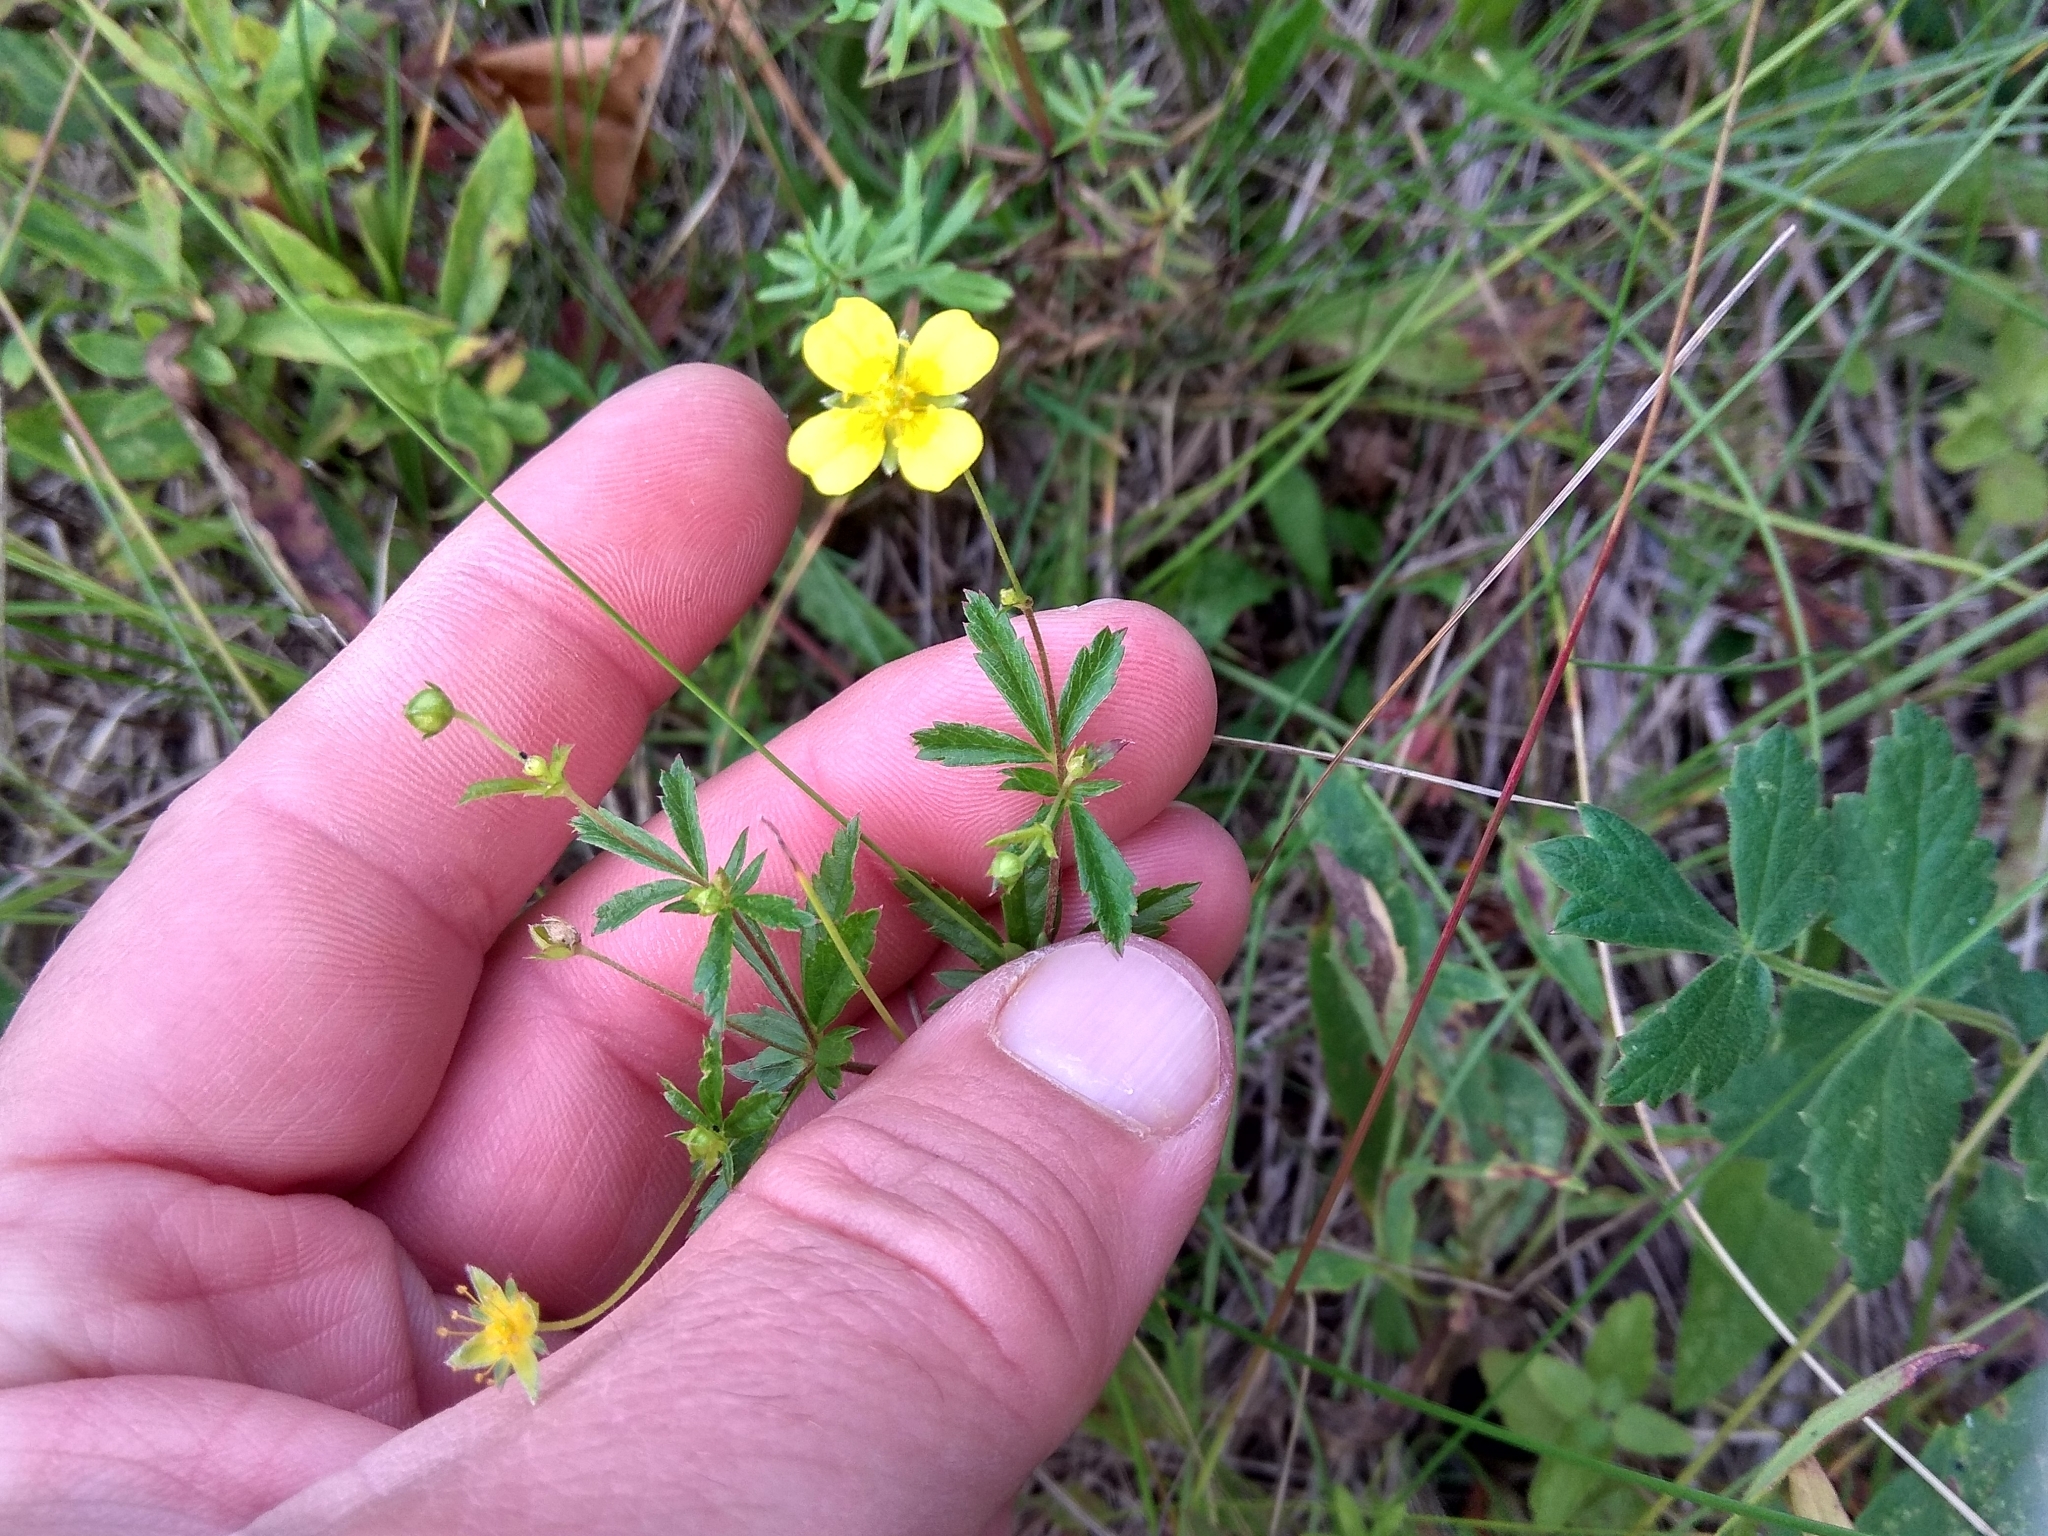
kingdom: Plantae
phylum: Tracheophyta
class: Magnoliopsida
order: Rosales
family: Rosaceae
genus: Potentilla
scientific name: Potentilla erecta
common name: Tormentil
